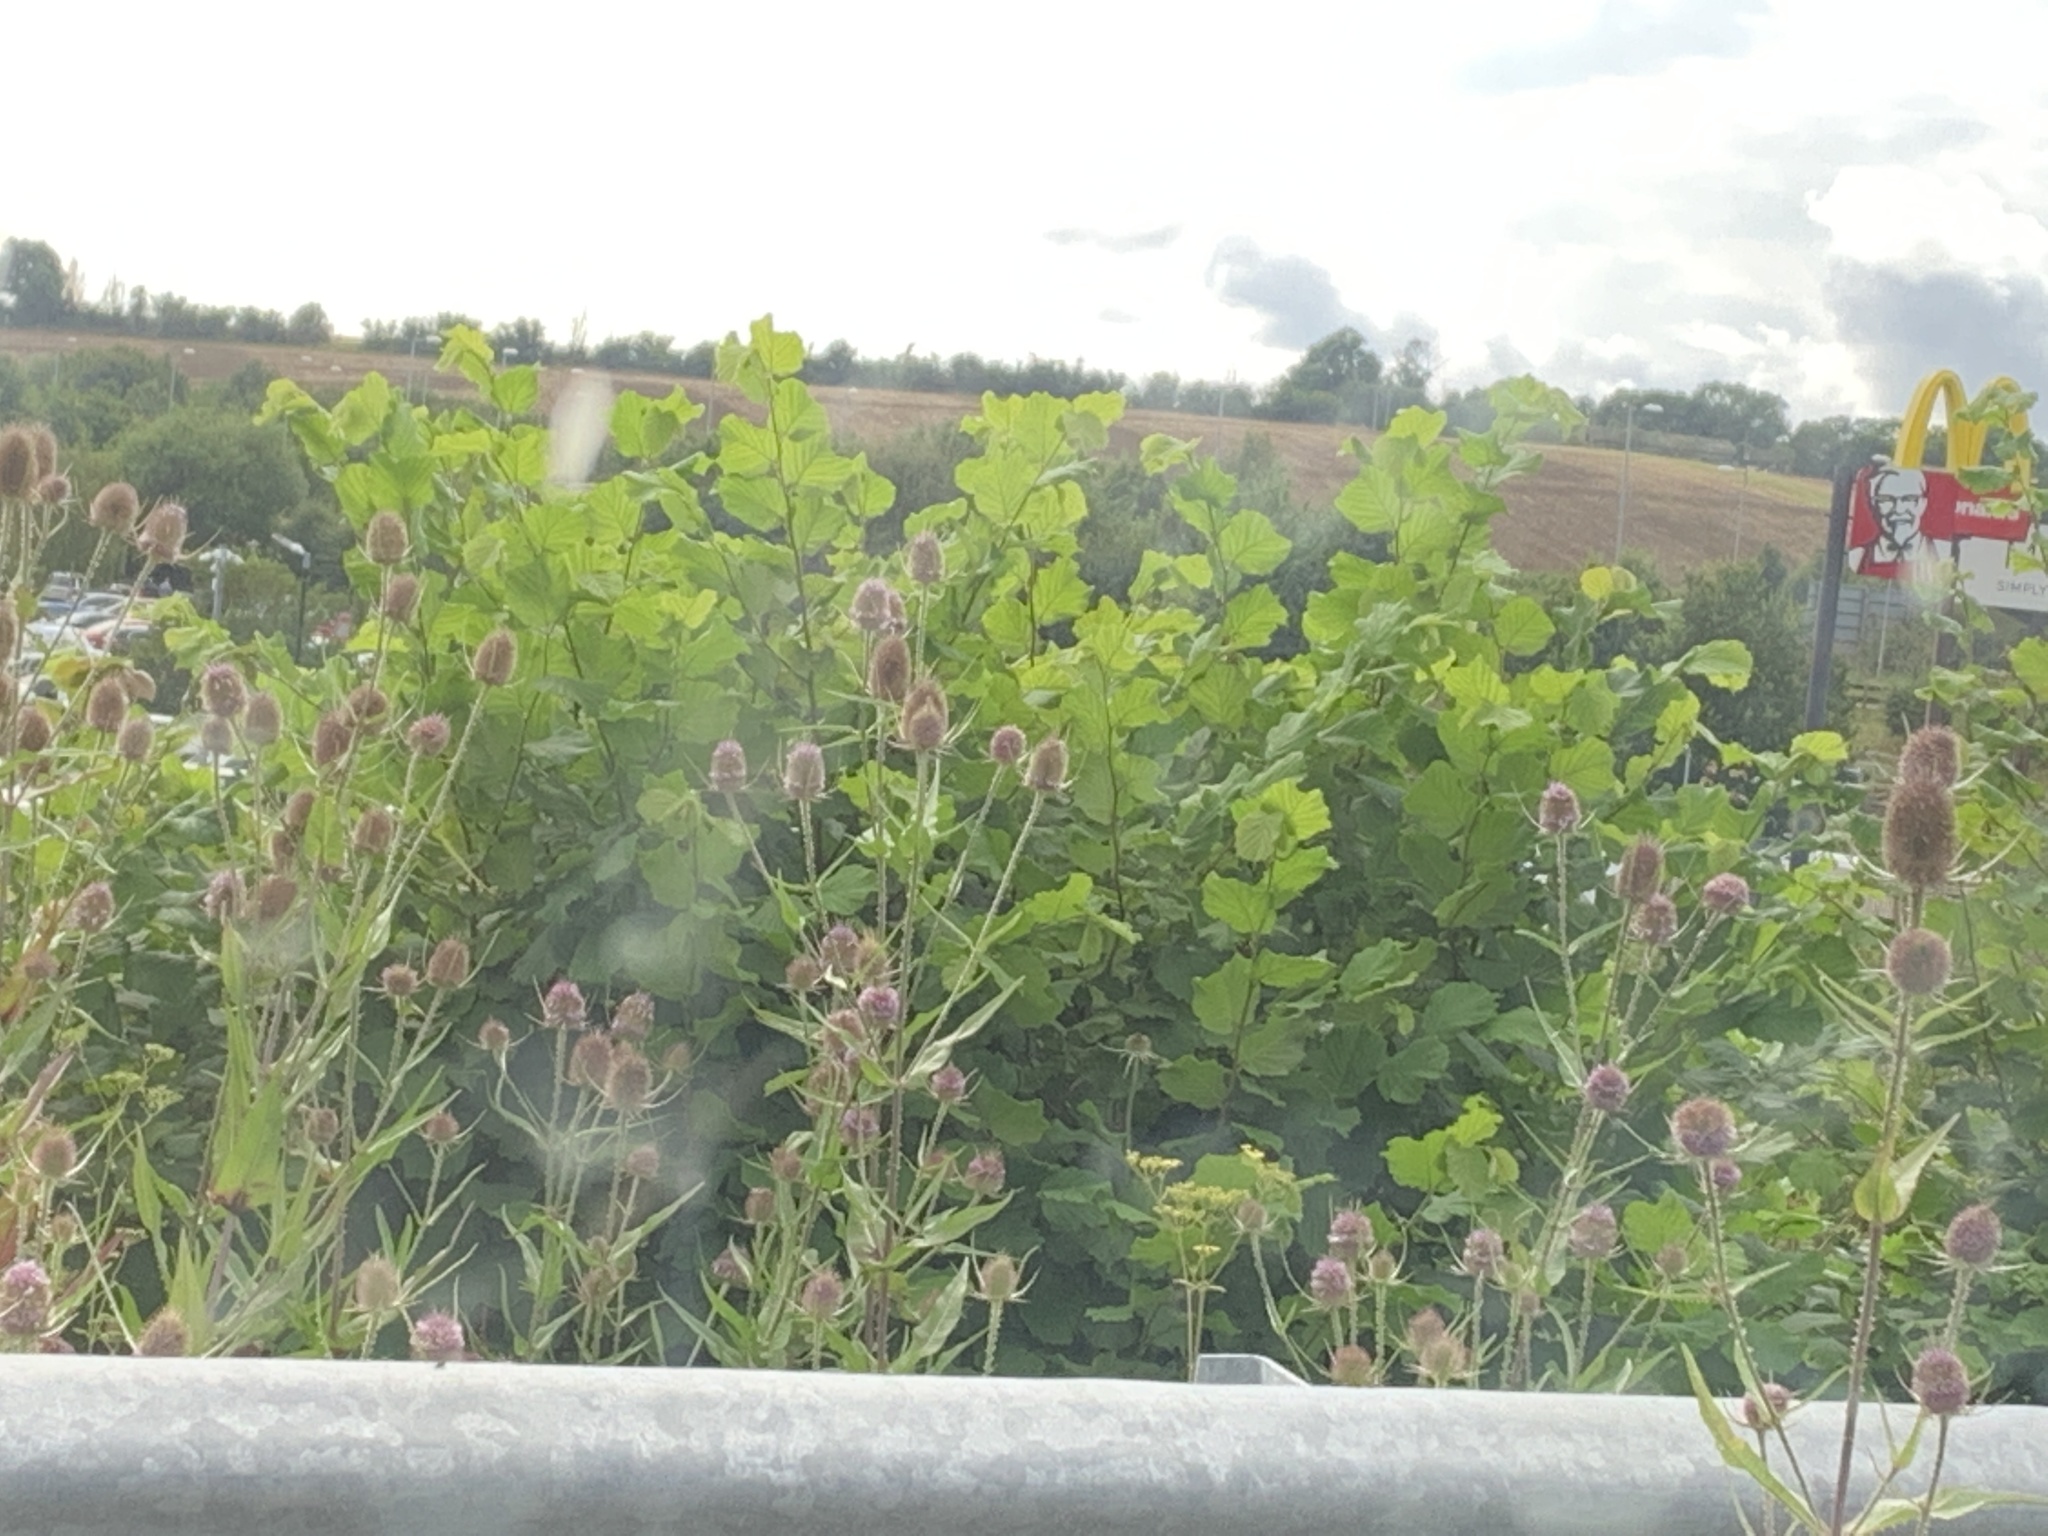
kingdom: Plantae
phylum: Tracheophyta
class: Magnoliopsida
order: Dipsacales
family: Caprifoliaceae
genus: Dipsacus
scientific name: Dipsacus fullonum
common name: Teasel
